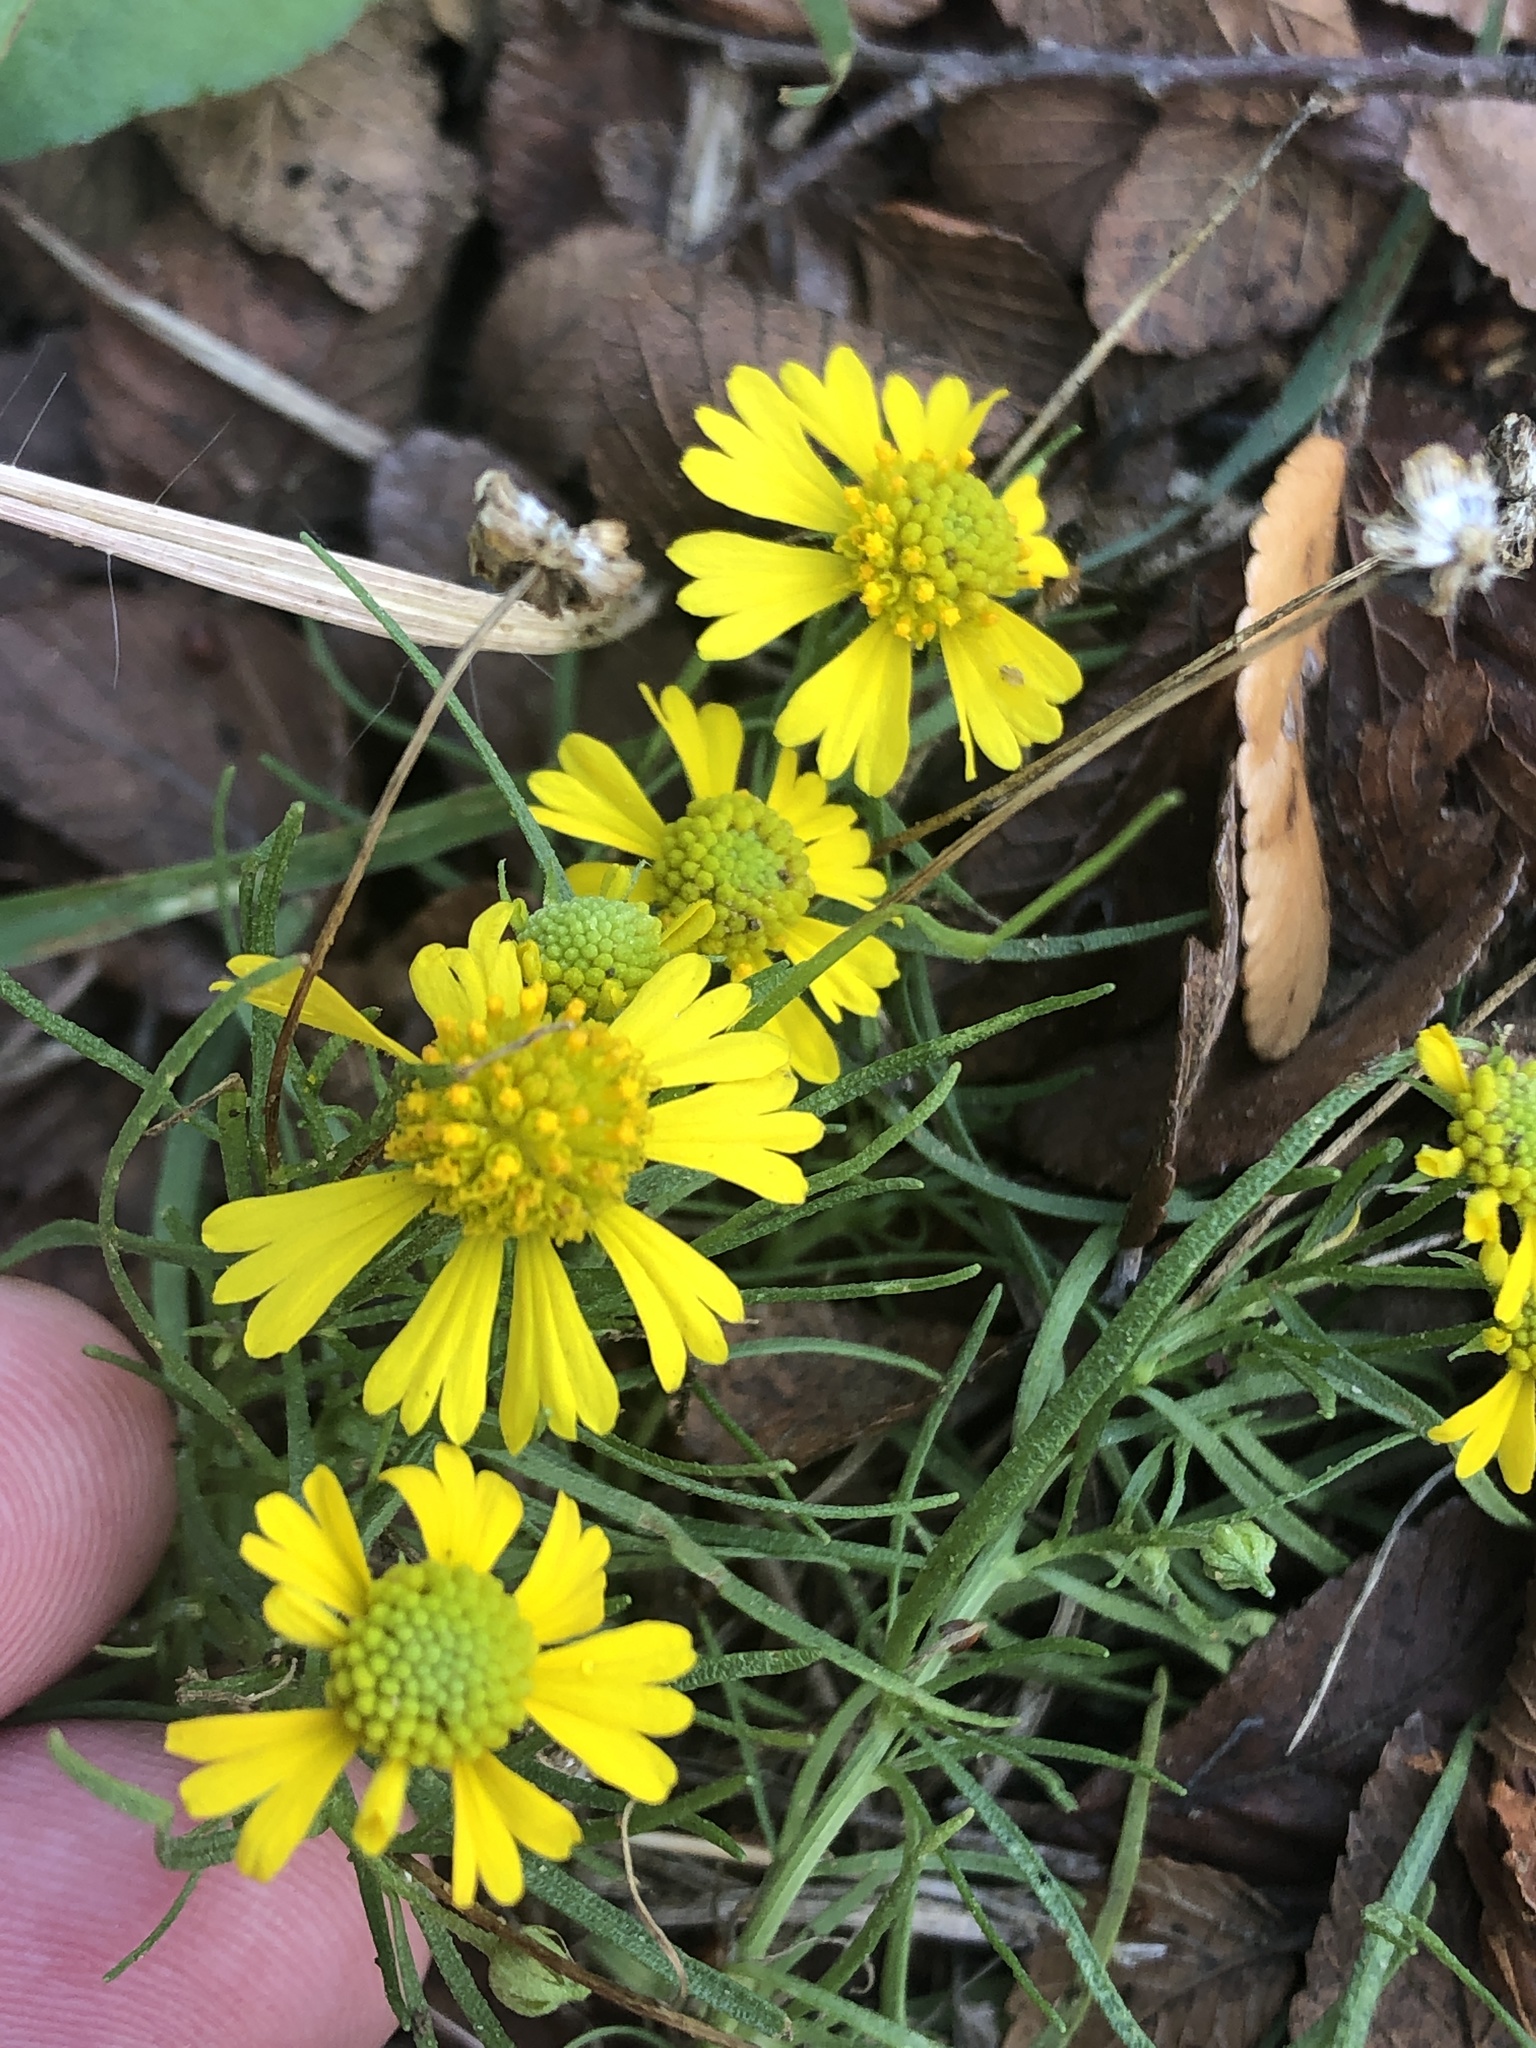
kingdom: Plantae
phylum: Tracheophyta
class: Magnoliopsida
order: Asterales
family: Asteraceae
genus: Helenium
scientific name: Helenium amarum
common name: Bitter sneezeweed
